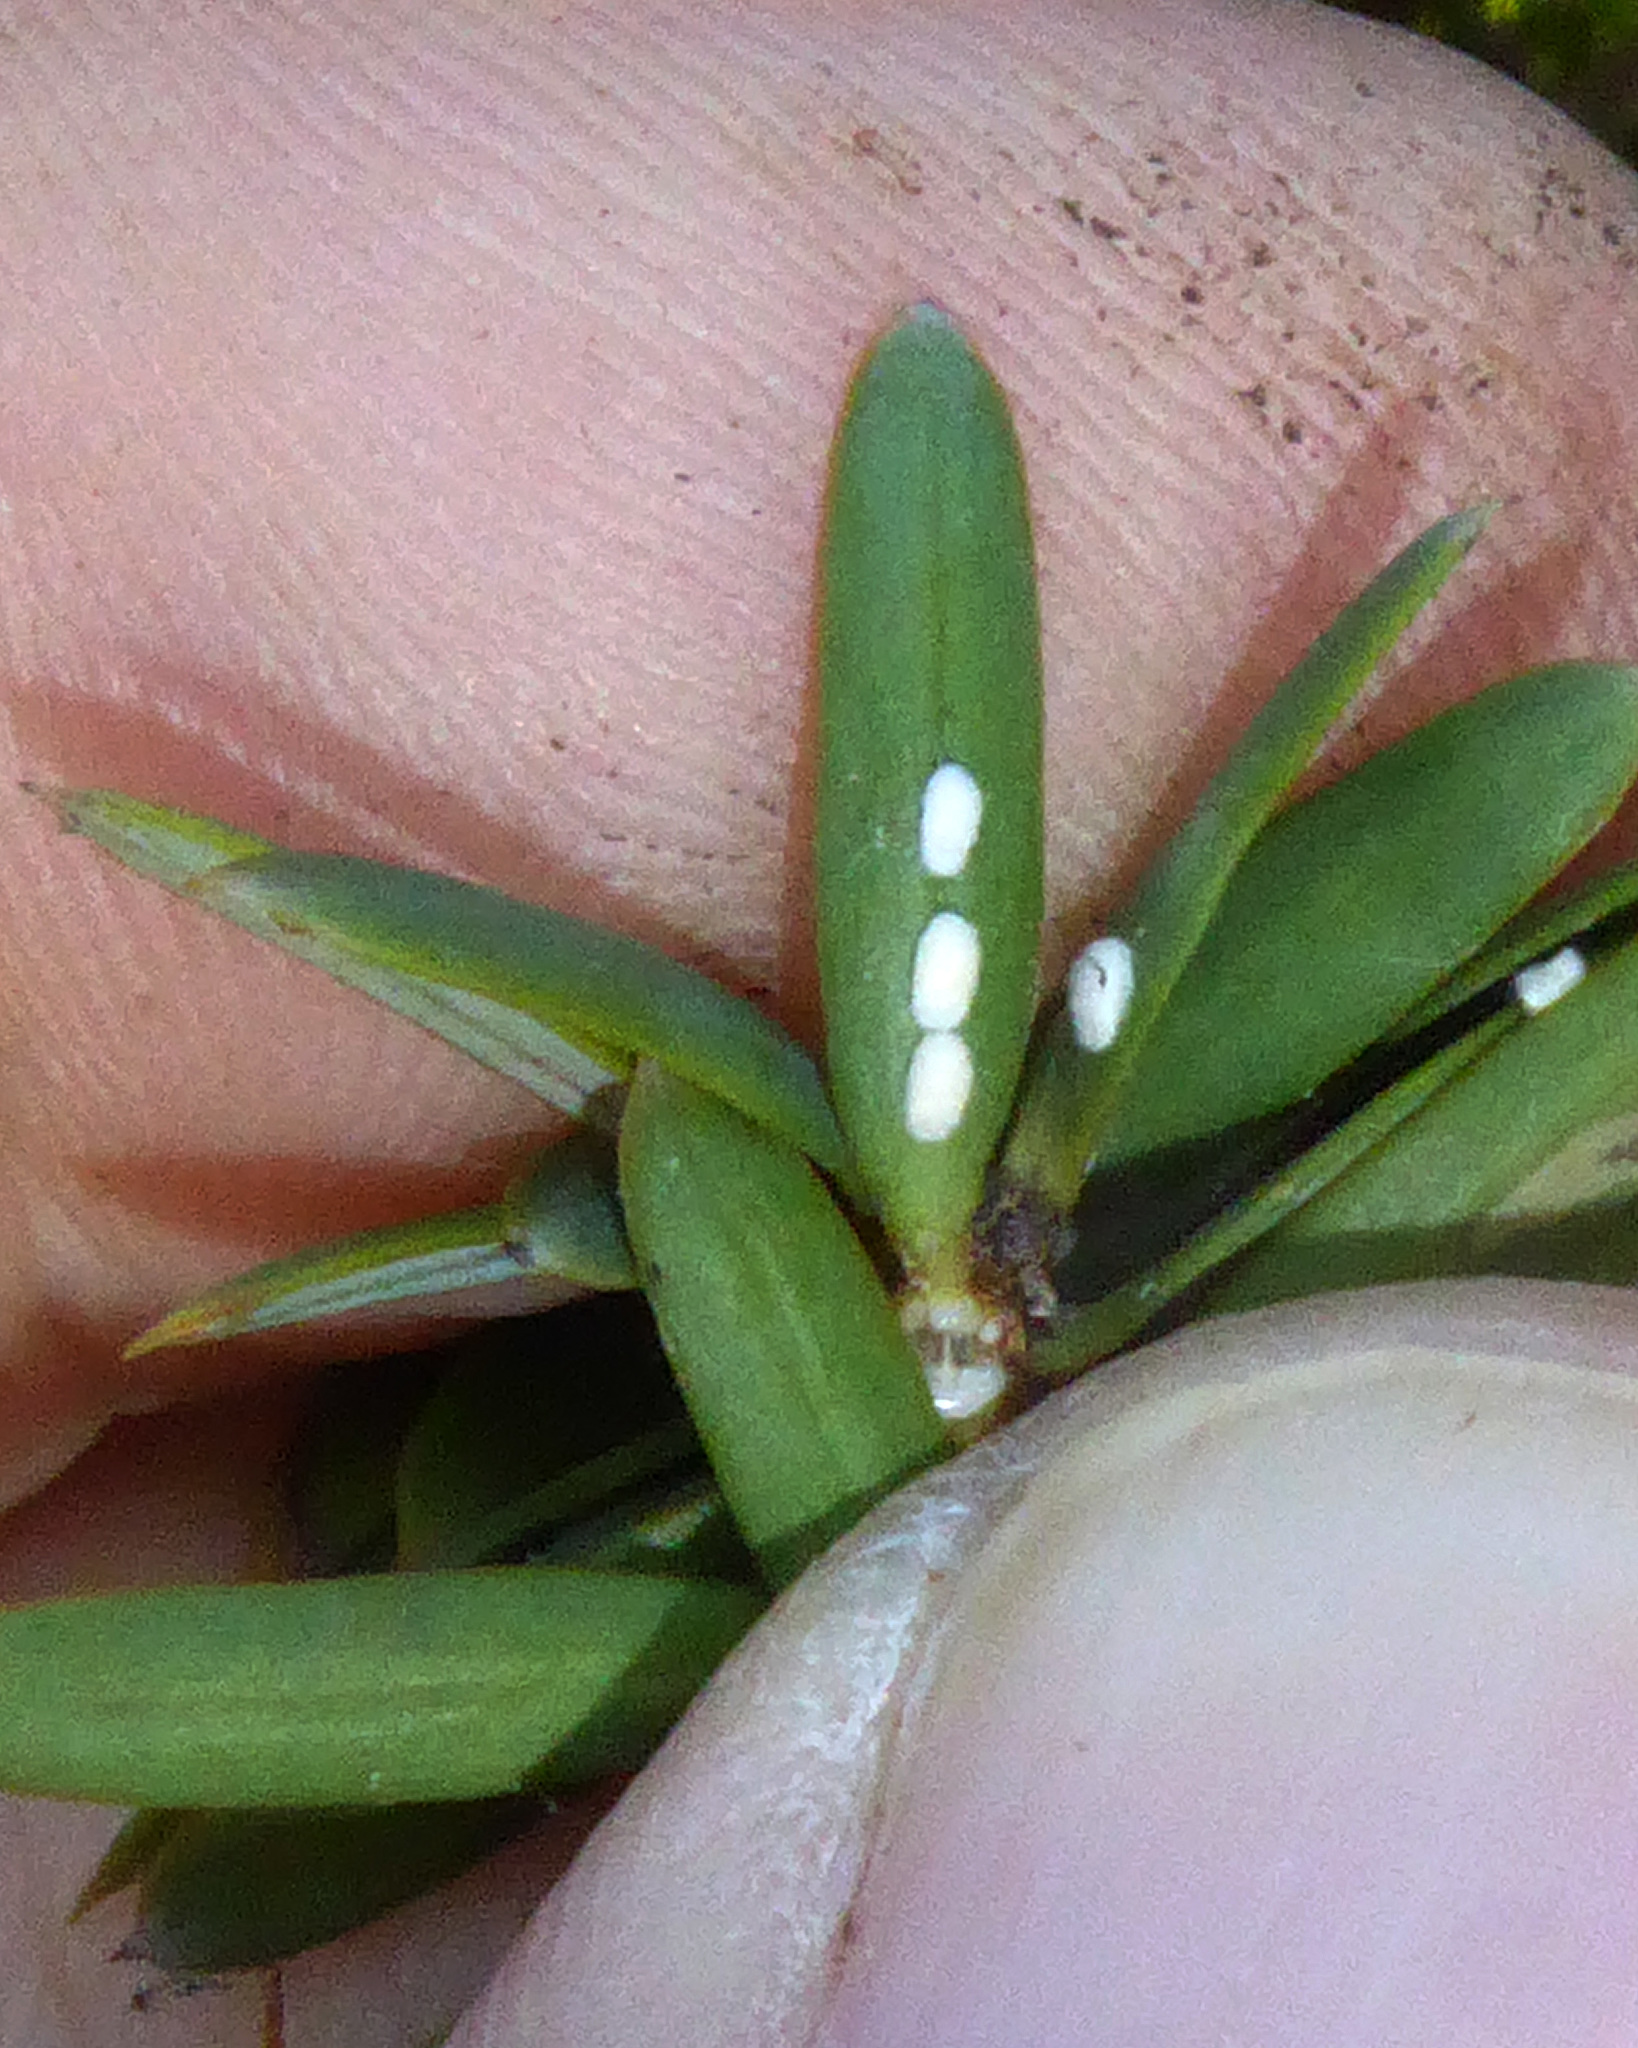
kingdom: Animalia
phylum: Arthropoda
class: Insecta
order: Hemiptera
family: Eriococcidae
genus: Madarococcus
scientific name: Madarococcus totarae
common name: Totara rhizococccus
